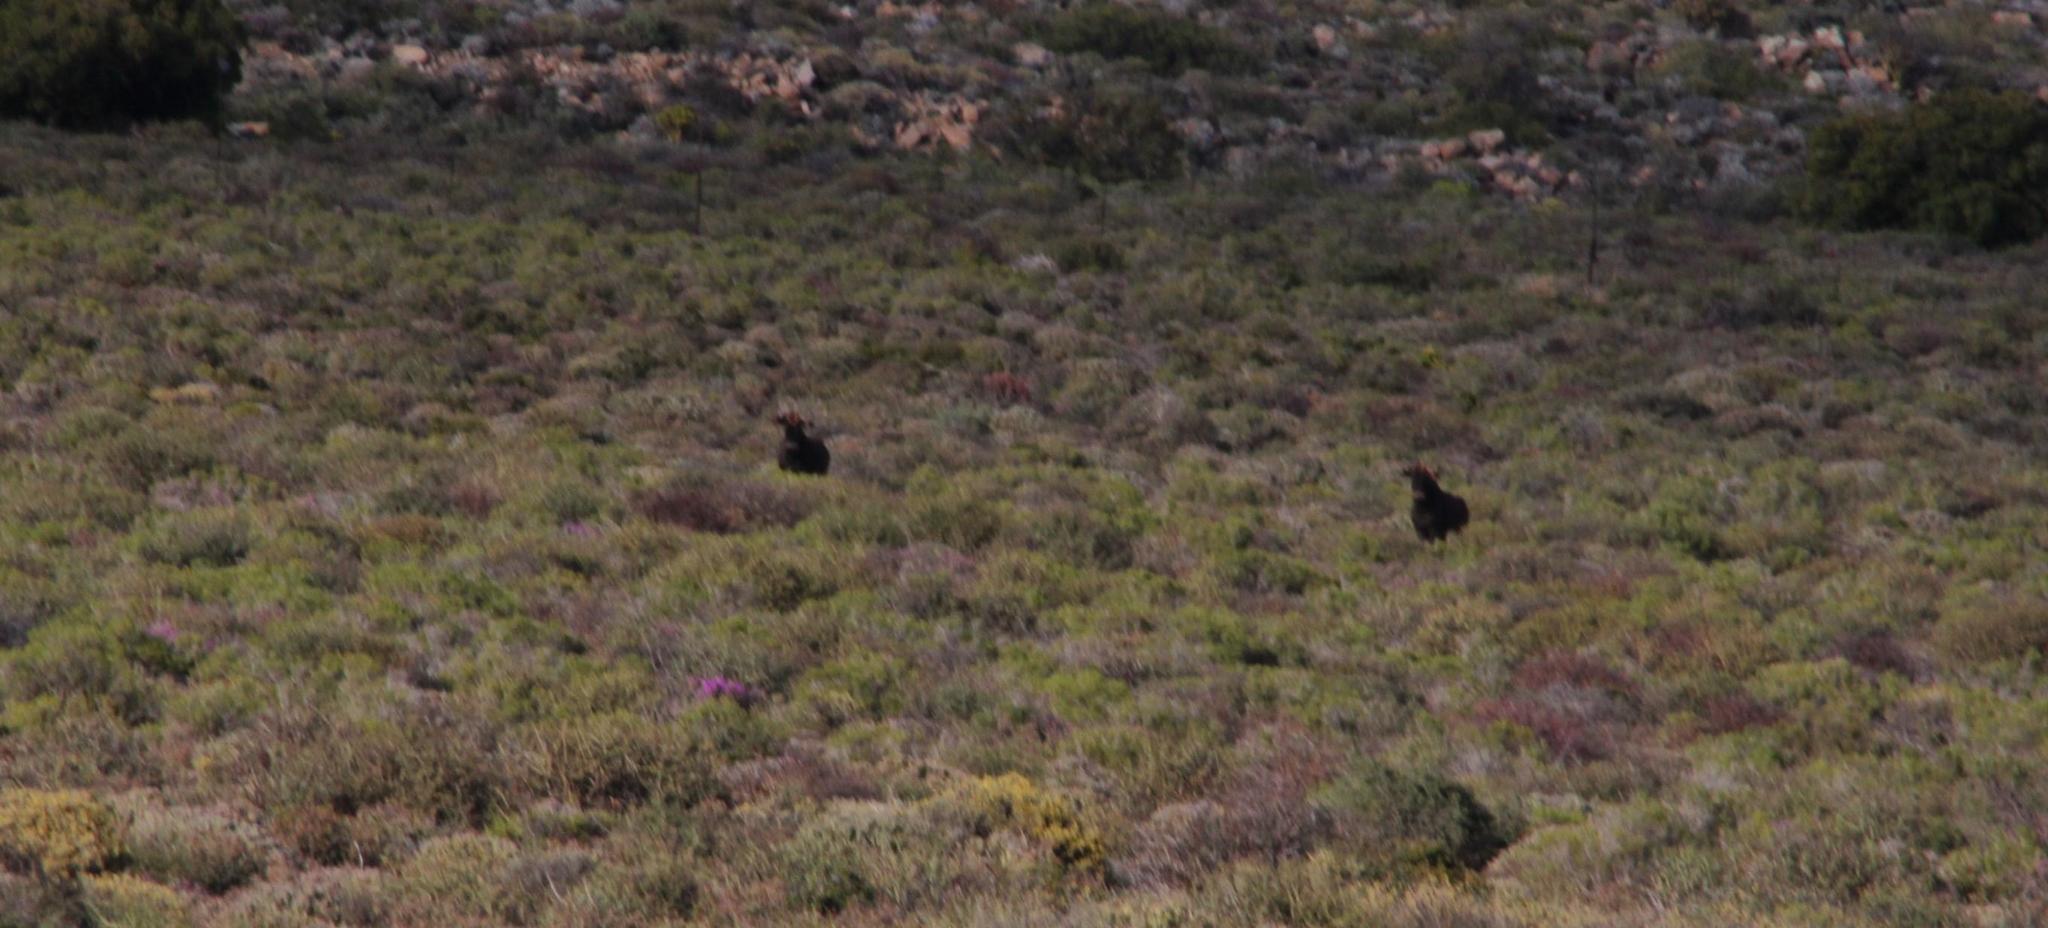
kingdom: Animalia
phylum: Chordata
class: Mammalia
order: Artiodactyla
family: Bovidae
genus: Connochaetes
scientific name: Connochaetes gnou
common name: Black wildebeest
